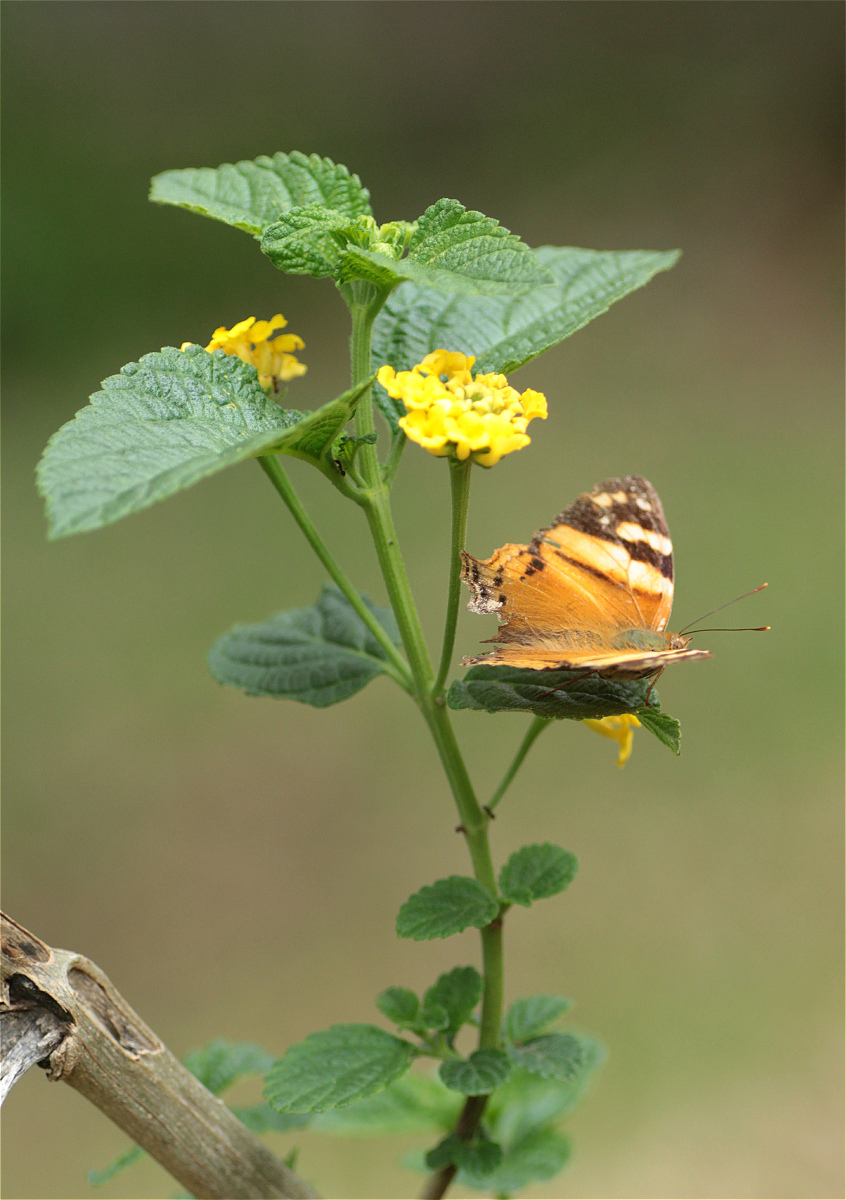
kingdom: Animalia
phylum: Arthropoda
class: Insecta
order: Lepidoptera
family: Nymphalidae
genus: Hypanartia
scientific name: Hypanartia lethe
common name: Orange mapwing
